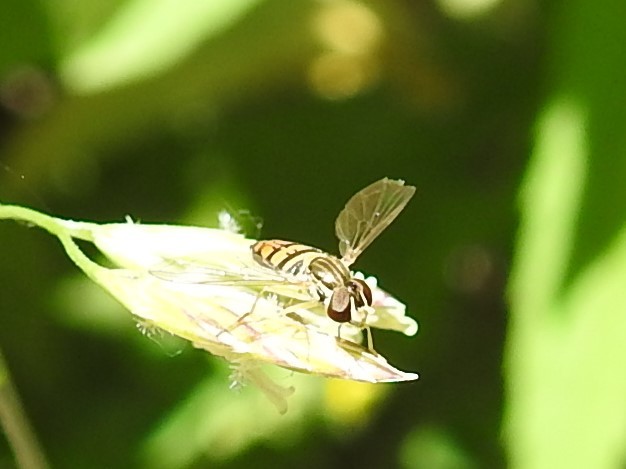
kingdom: Animalia
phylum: Arthropoda
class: Insecta
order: Diptera
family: Syrphidae
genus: Toxomerus
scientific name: Toxomerus marginatus
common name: Syrphid fly
